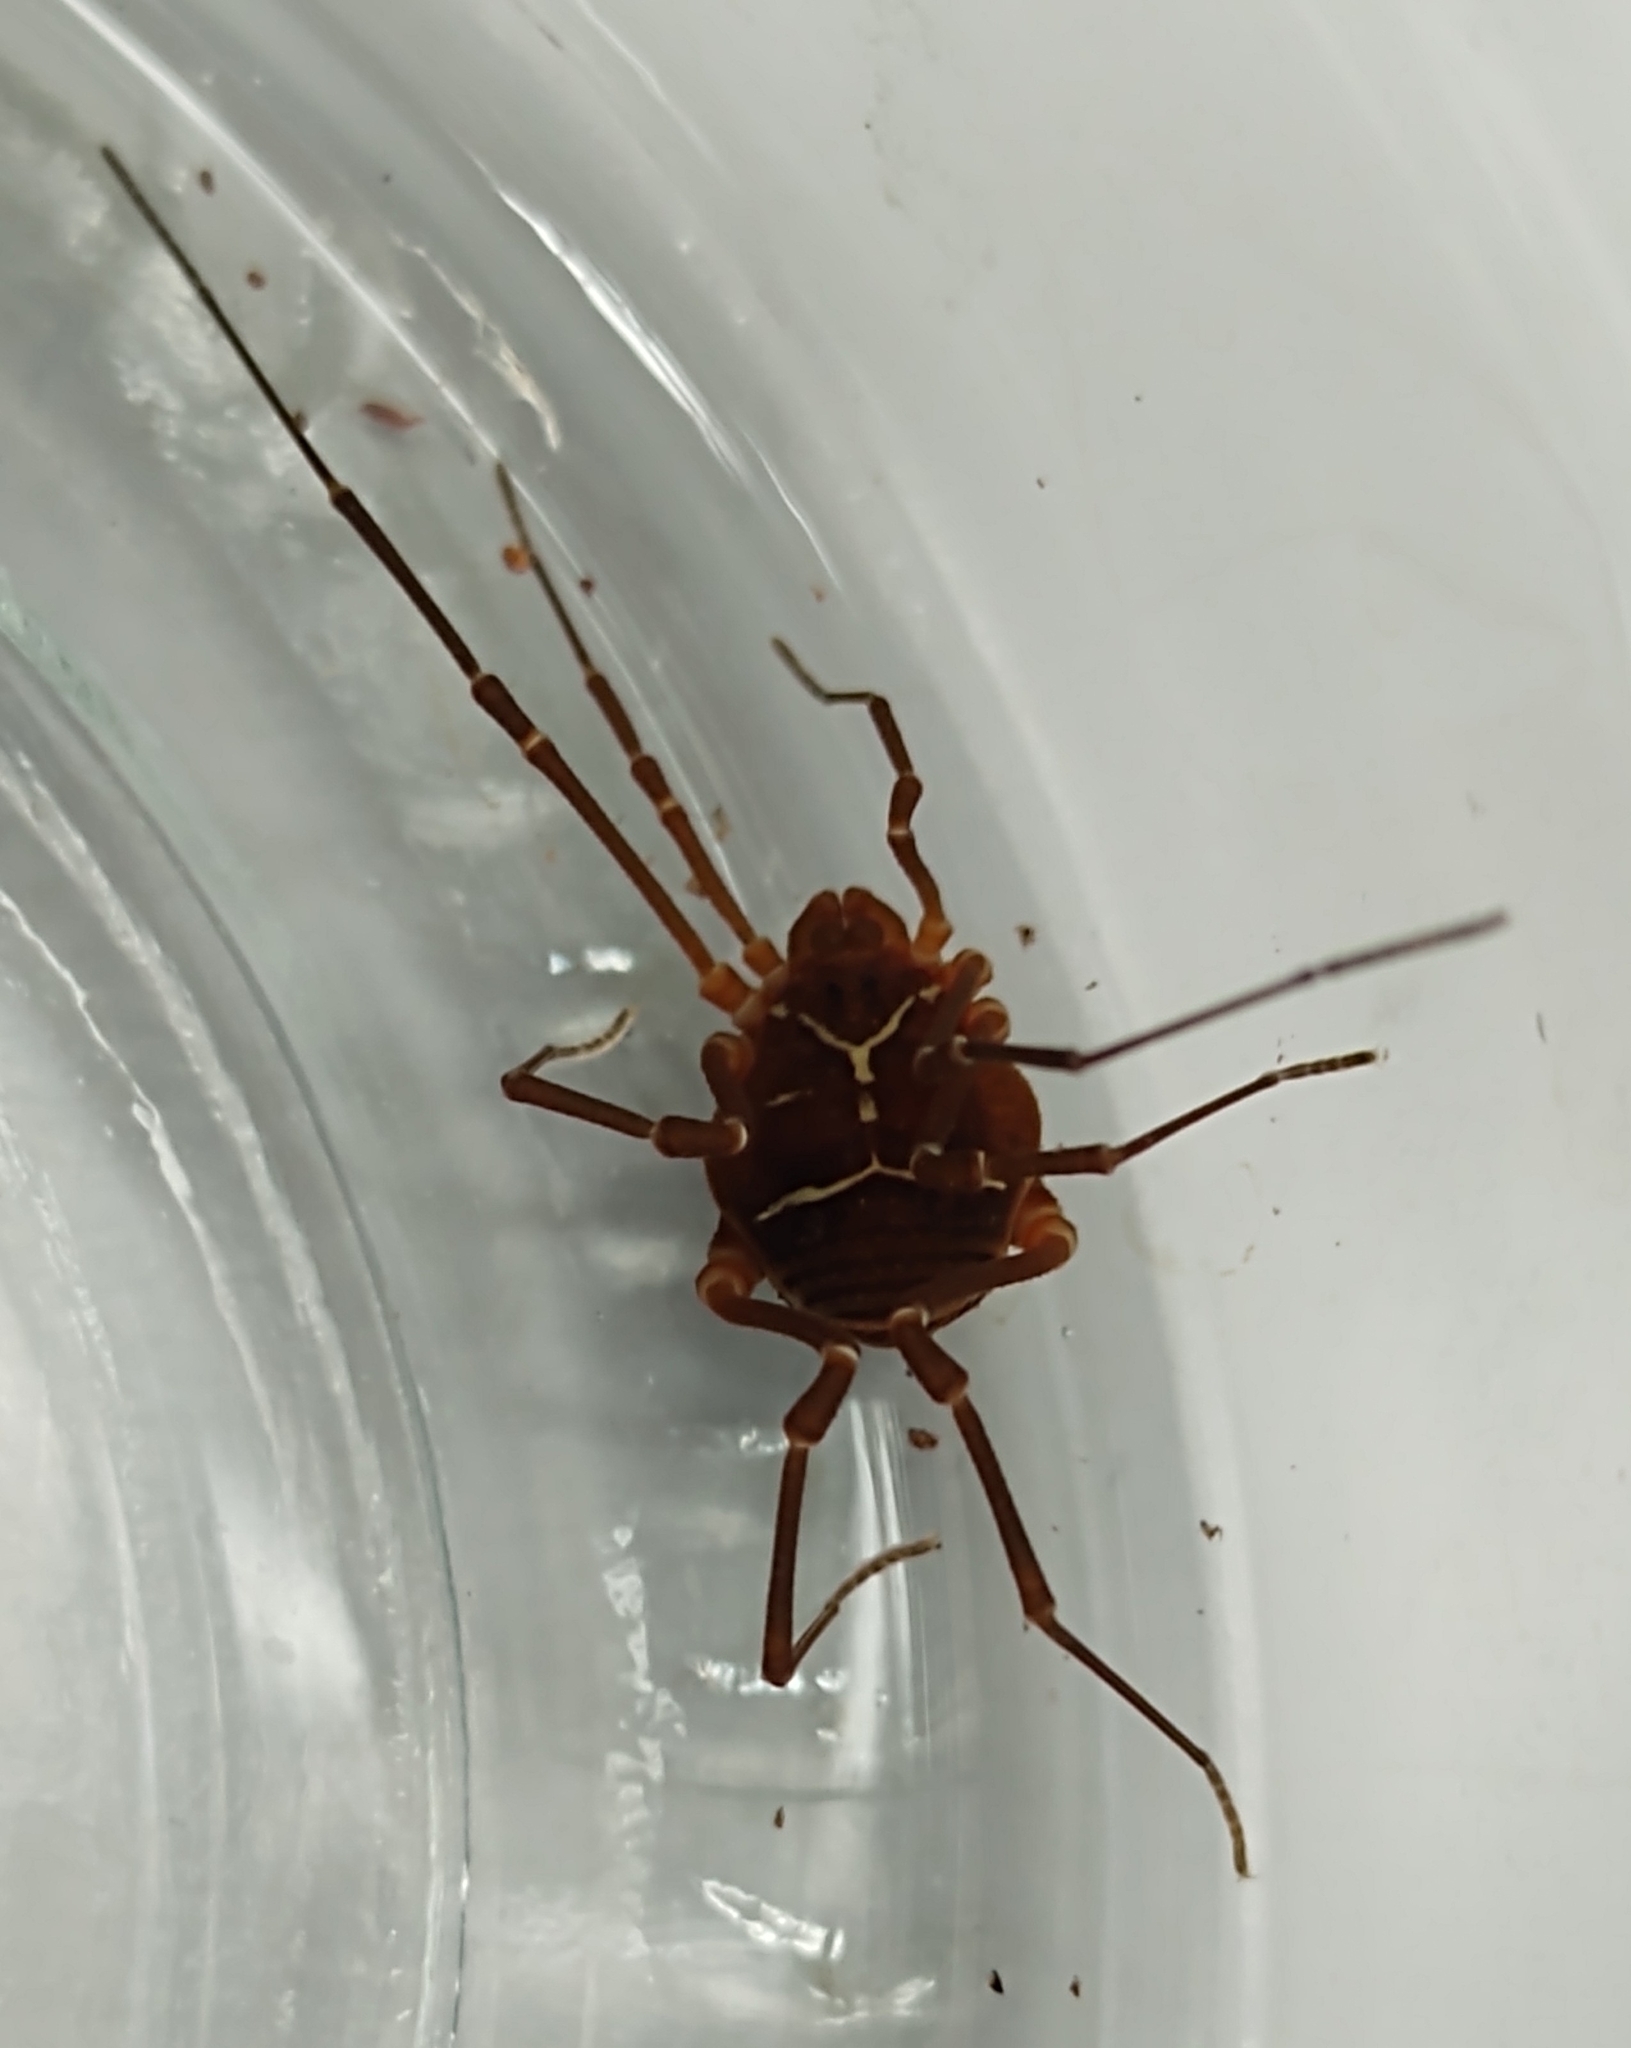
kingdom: Animalia
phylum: Arthropoda
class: Arachnida
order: Opiliones
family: Cosmetidae
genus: Libitioides
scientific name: Libitioides sayi
